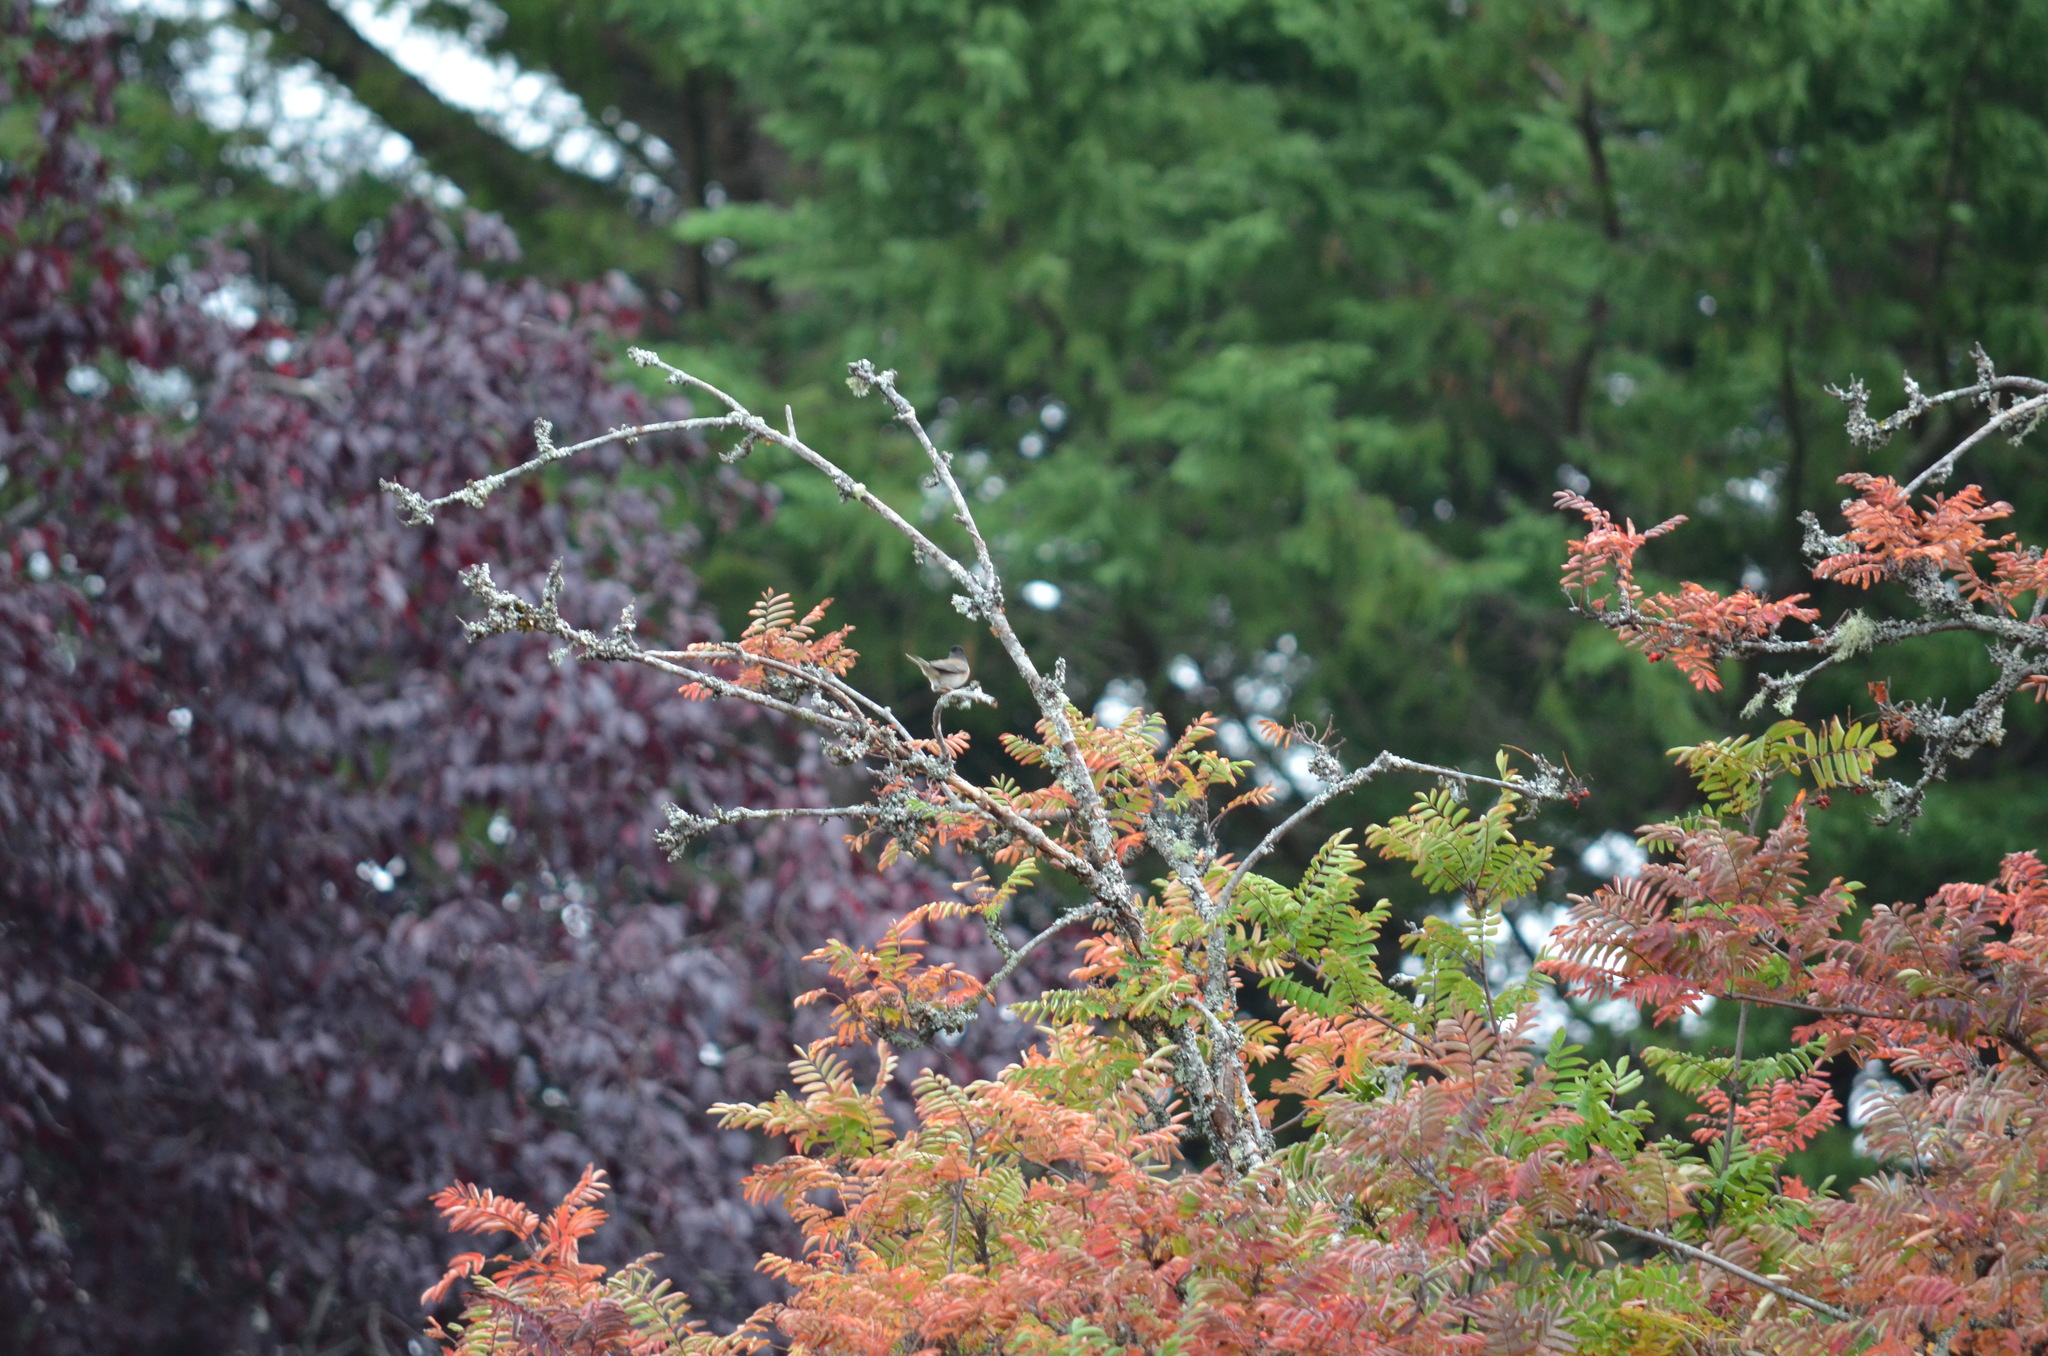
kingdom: Animalia
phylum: Chordata
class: Aves
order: Passeriformes
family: Passerellidae
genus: Junco
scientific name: Junco hyemalis
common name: Dark-eyed junco
